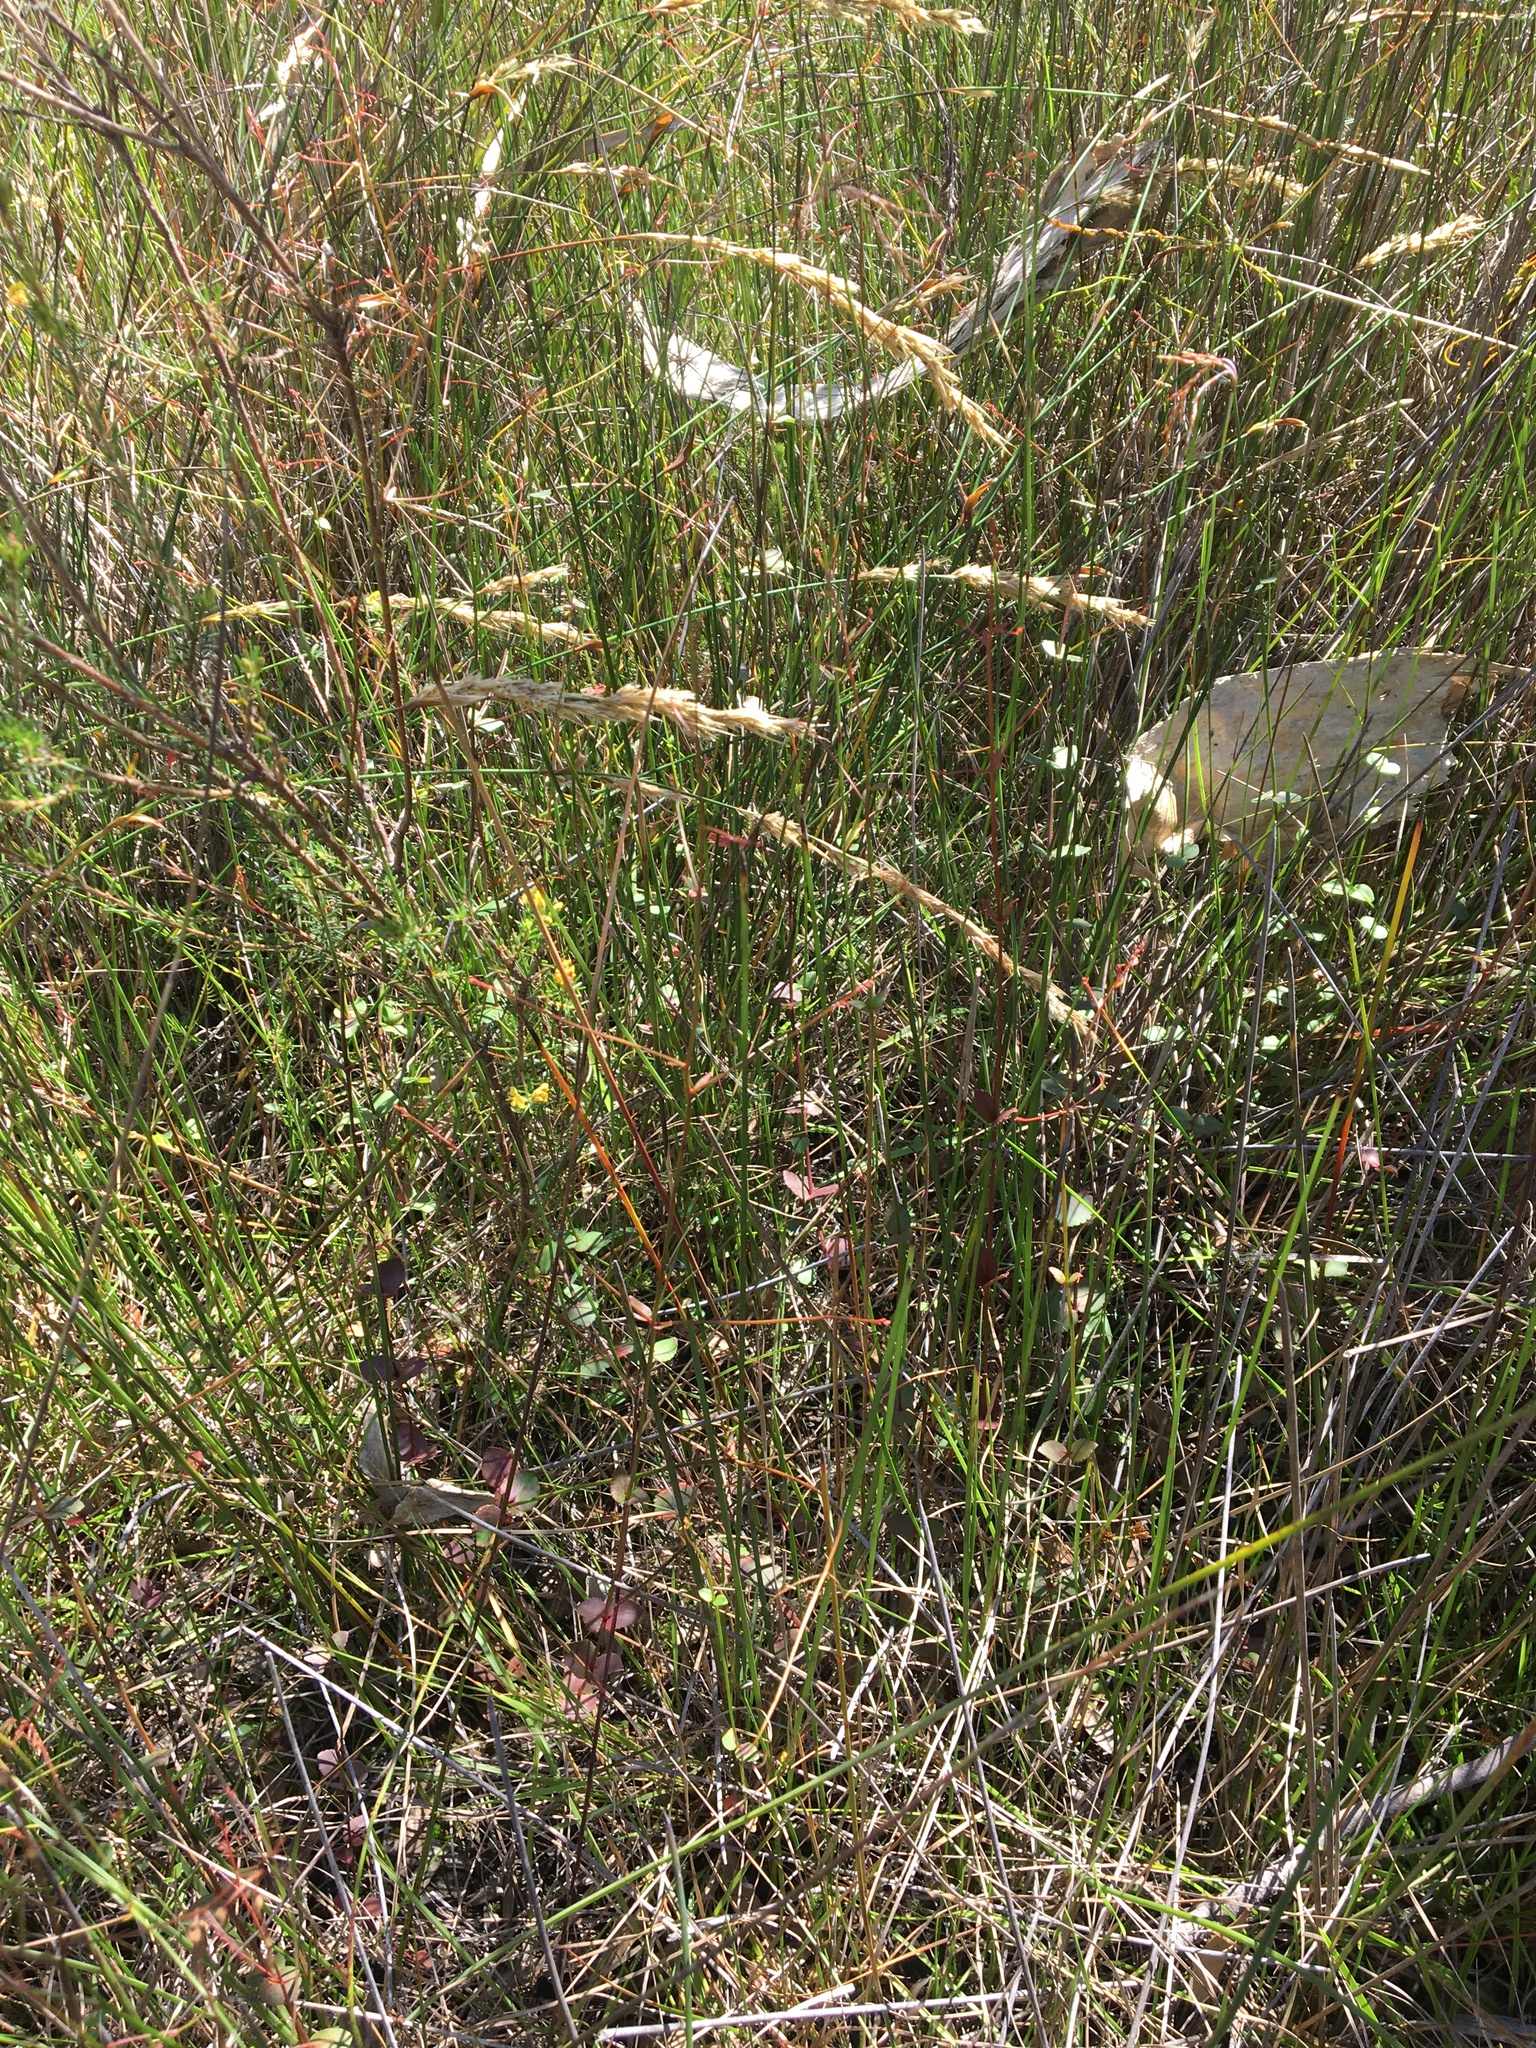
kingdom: Plantae
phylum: Tracheophyta
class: Magnoliopsida
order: Saxifragales
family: Haloragaceae
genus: Gonocarpus
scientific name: Gonocarpus micranthus
